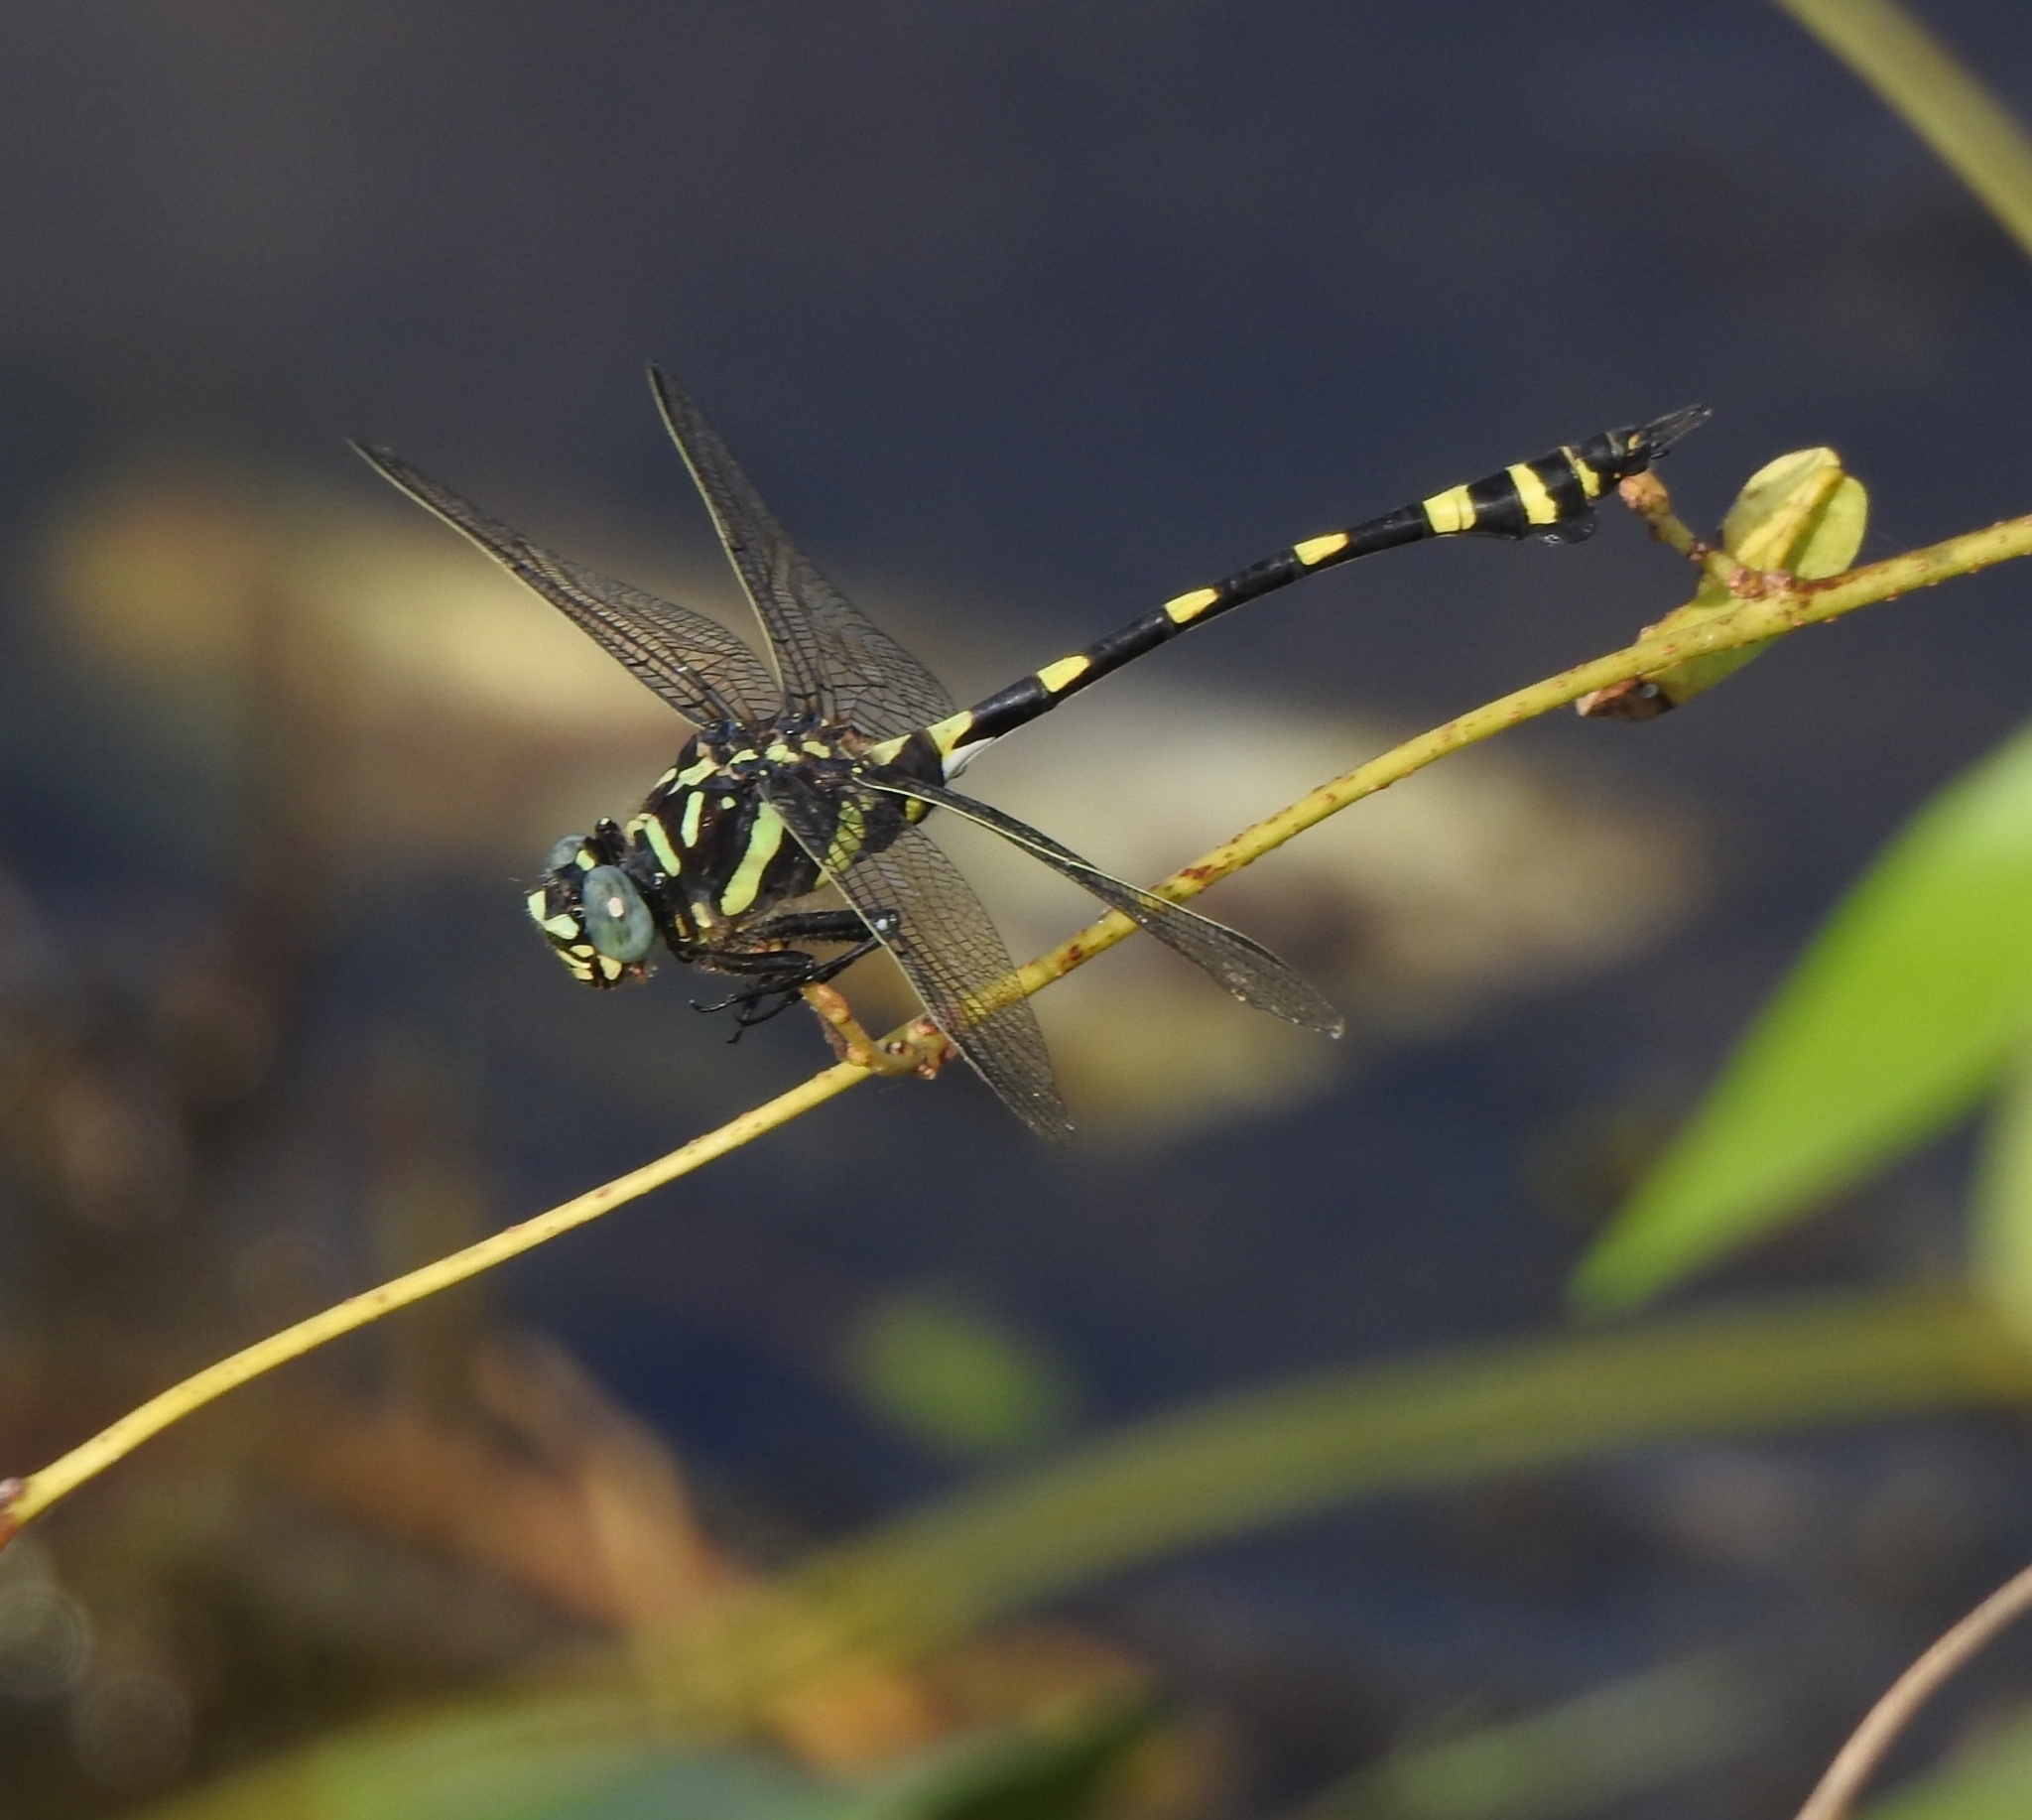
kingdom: Animalia
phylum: Arthropoda
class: Insecta
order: Odonata
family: Gomphidae
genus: Ictinogomphus
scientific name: Ictinogomphus rapax
